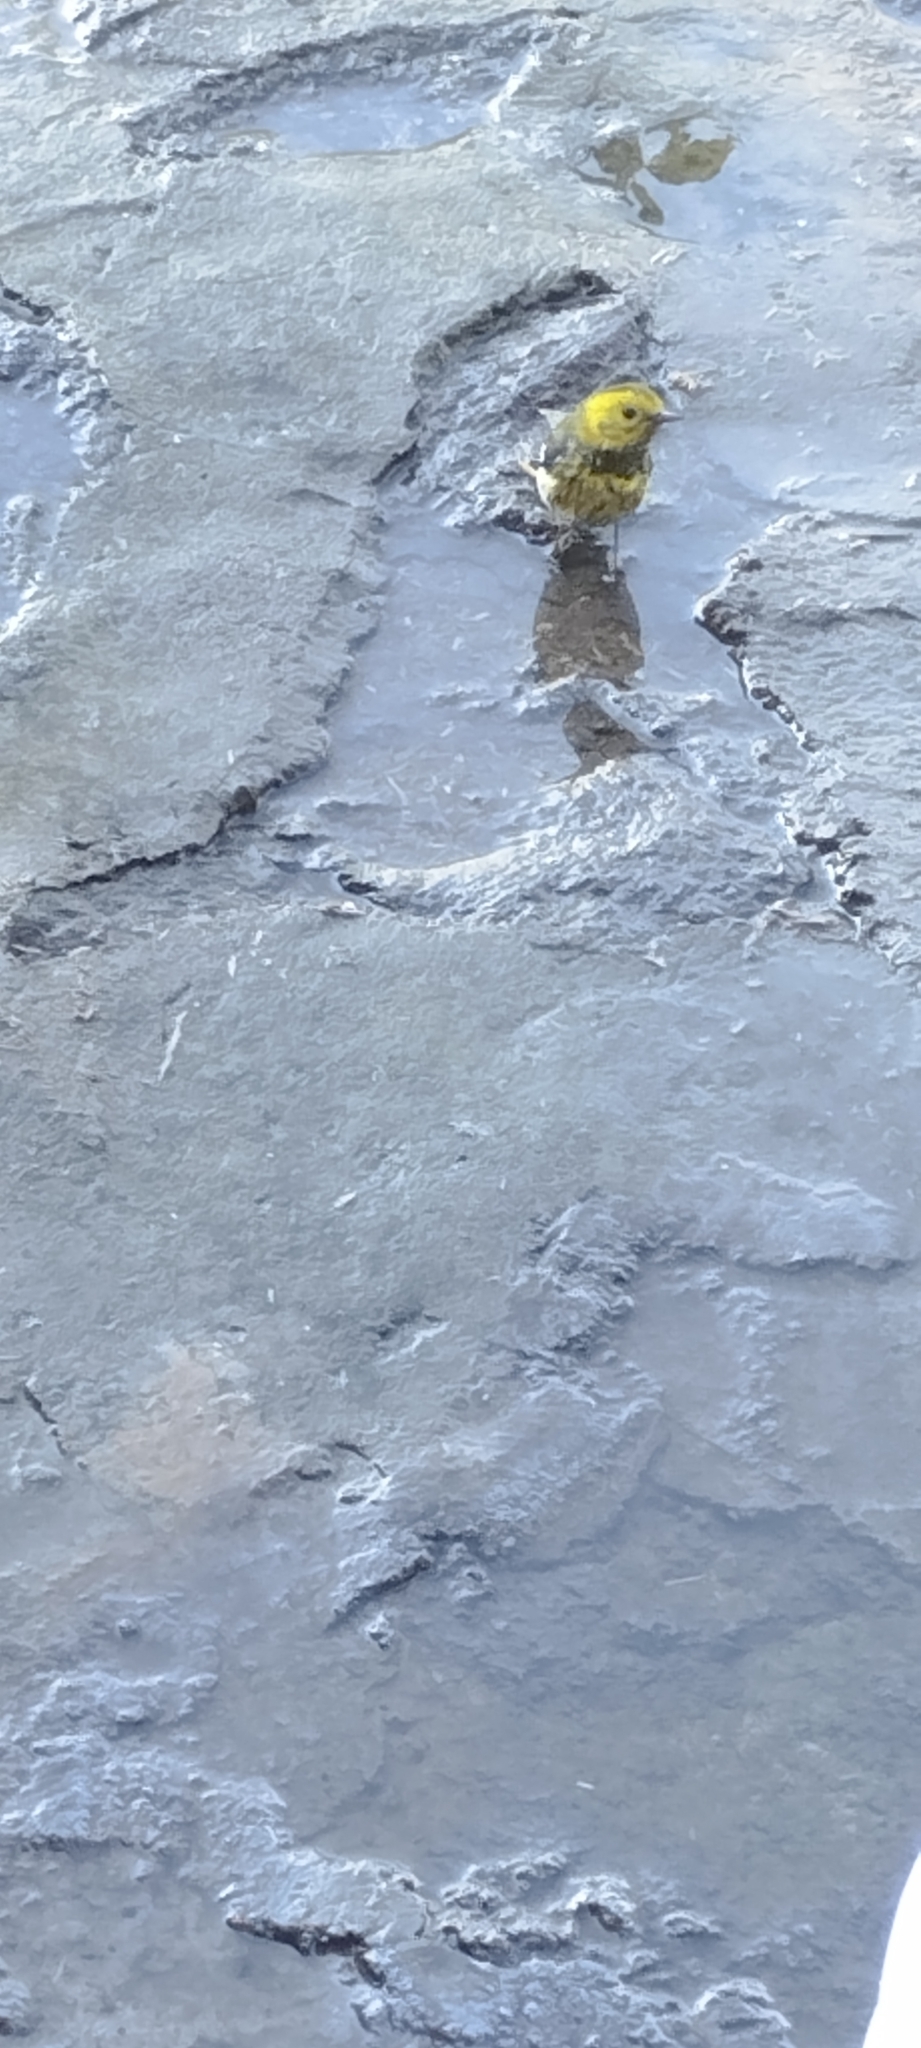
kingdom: Animalia
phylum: Chordata
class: Aves
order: Passeriformes
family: Parulidae
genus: Setophaga
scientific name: Setophaga occidentalis
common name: Hermit warbler
